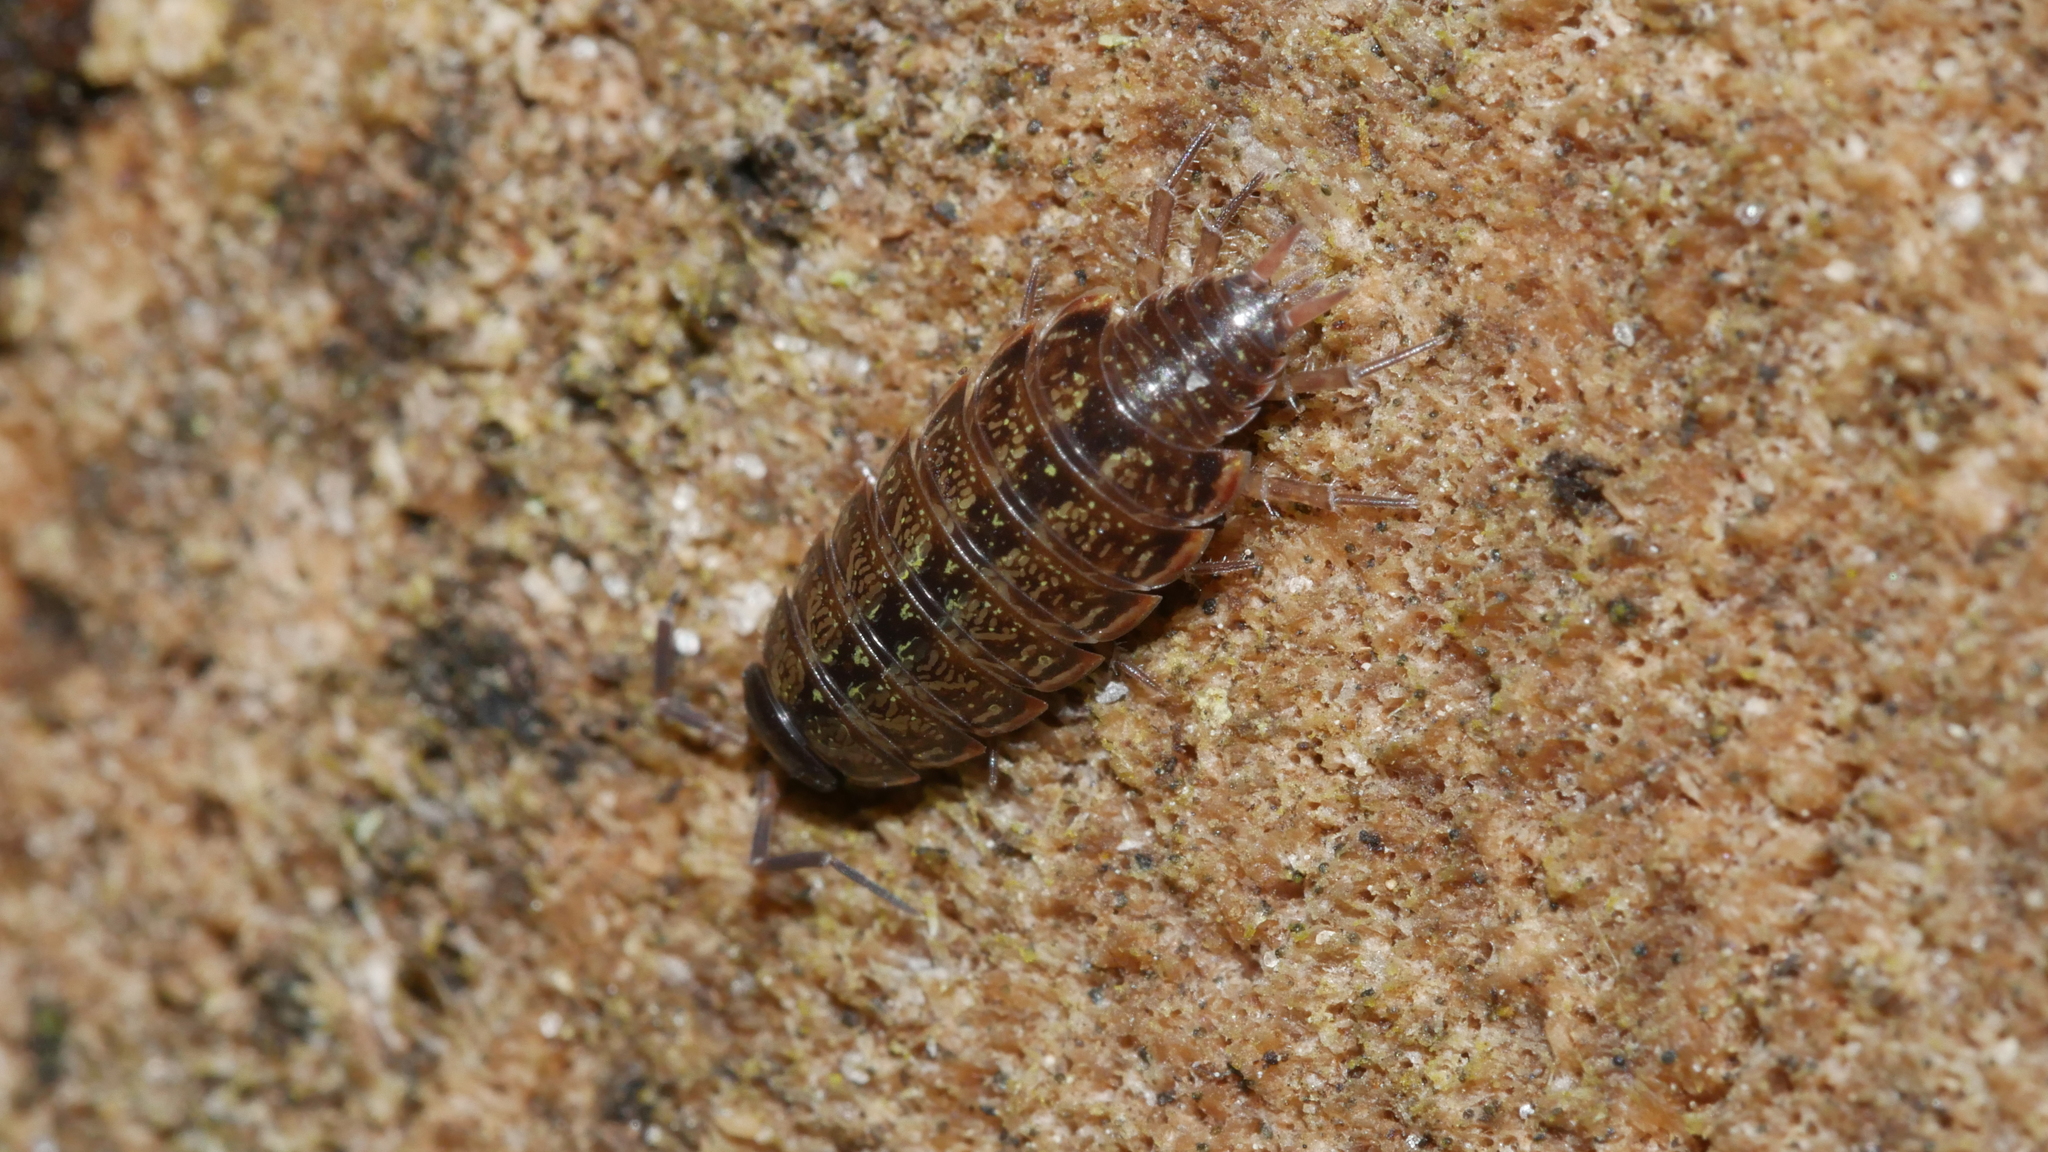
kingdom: Animalia
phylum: Arthropoda
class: Malacostraca
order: Isopoda
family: Philosciidae
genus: Philoscia
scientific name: Philoscia muscorum
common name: Common striped woodlouse
